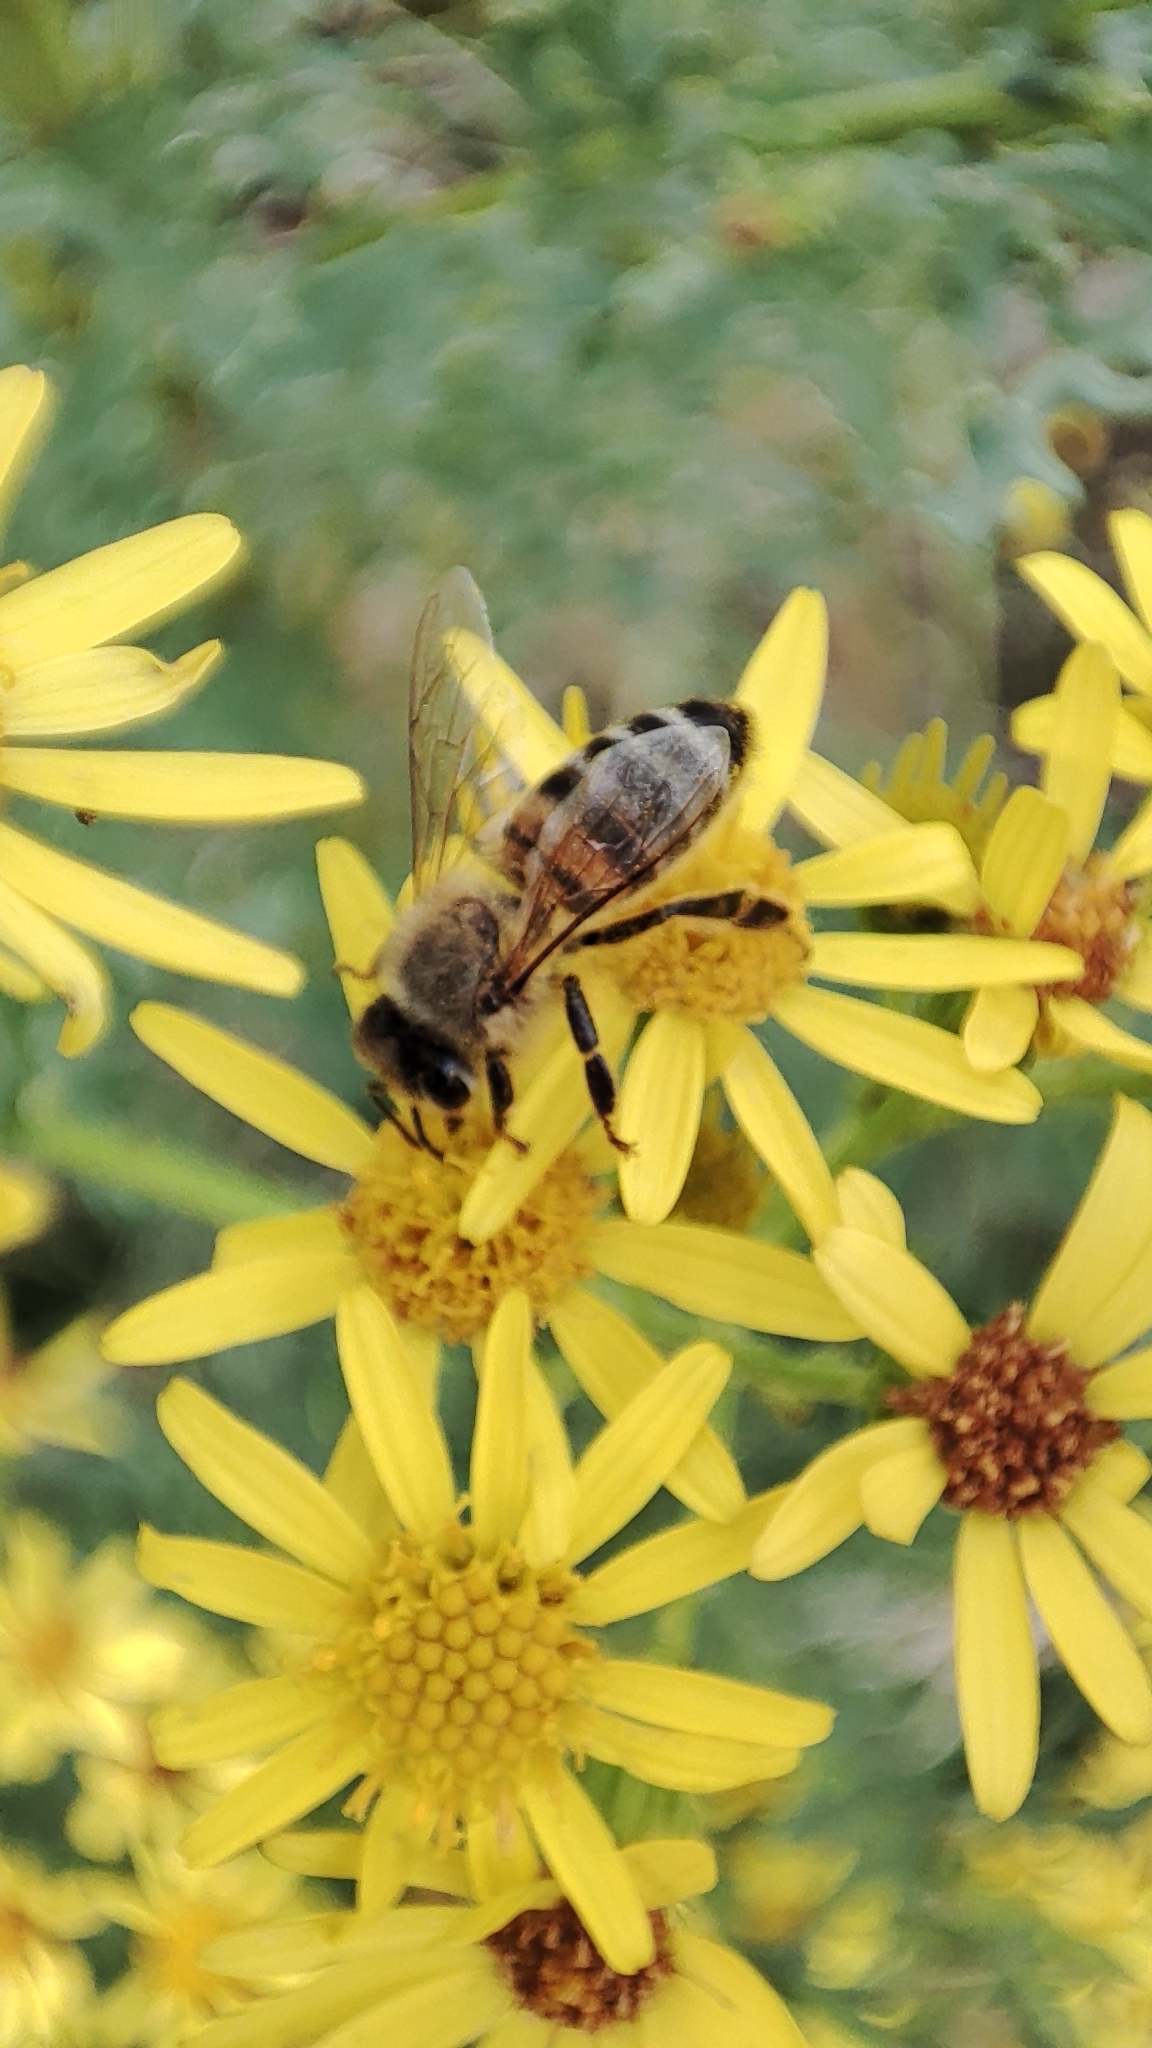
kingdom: Animalia
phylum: Arthropoda
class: Insecta
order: Hymenoptera
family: Apidae
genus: Apis
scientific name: Apis mellifera
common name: Honey bee
